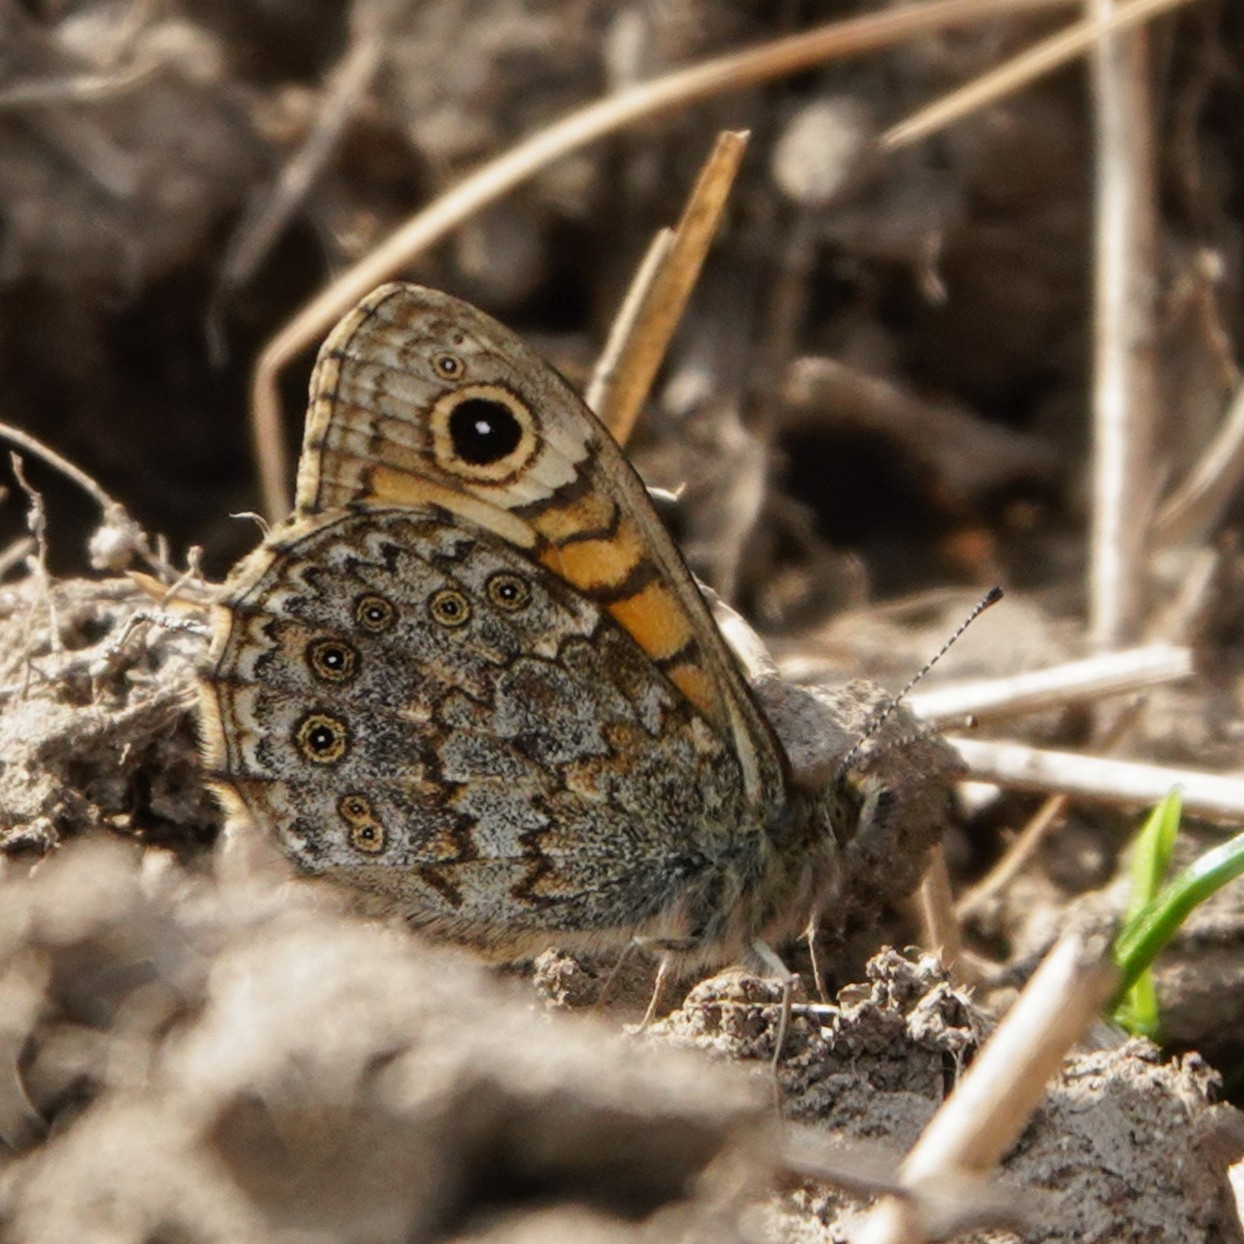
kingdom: Animalia
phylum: Arthropoda
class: Insecta
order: Lepidoptera
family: Nymphalidae
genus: Pararge
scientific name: Pararge Lasiommata megera
